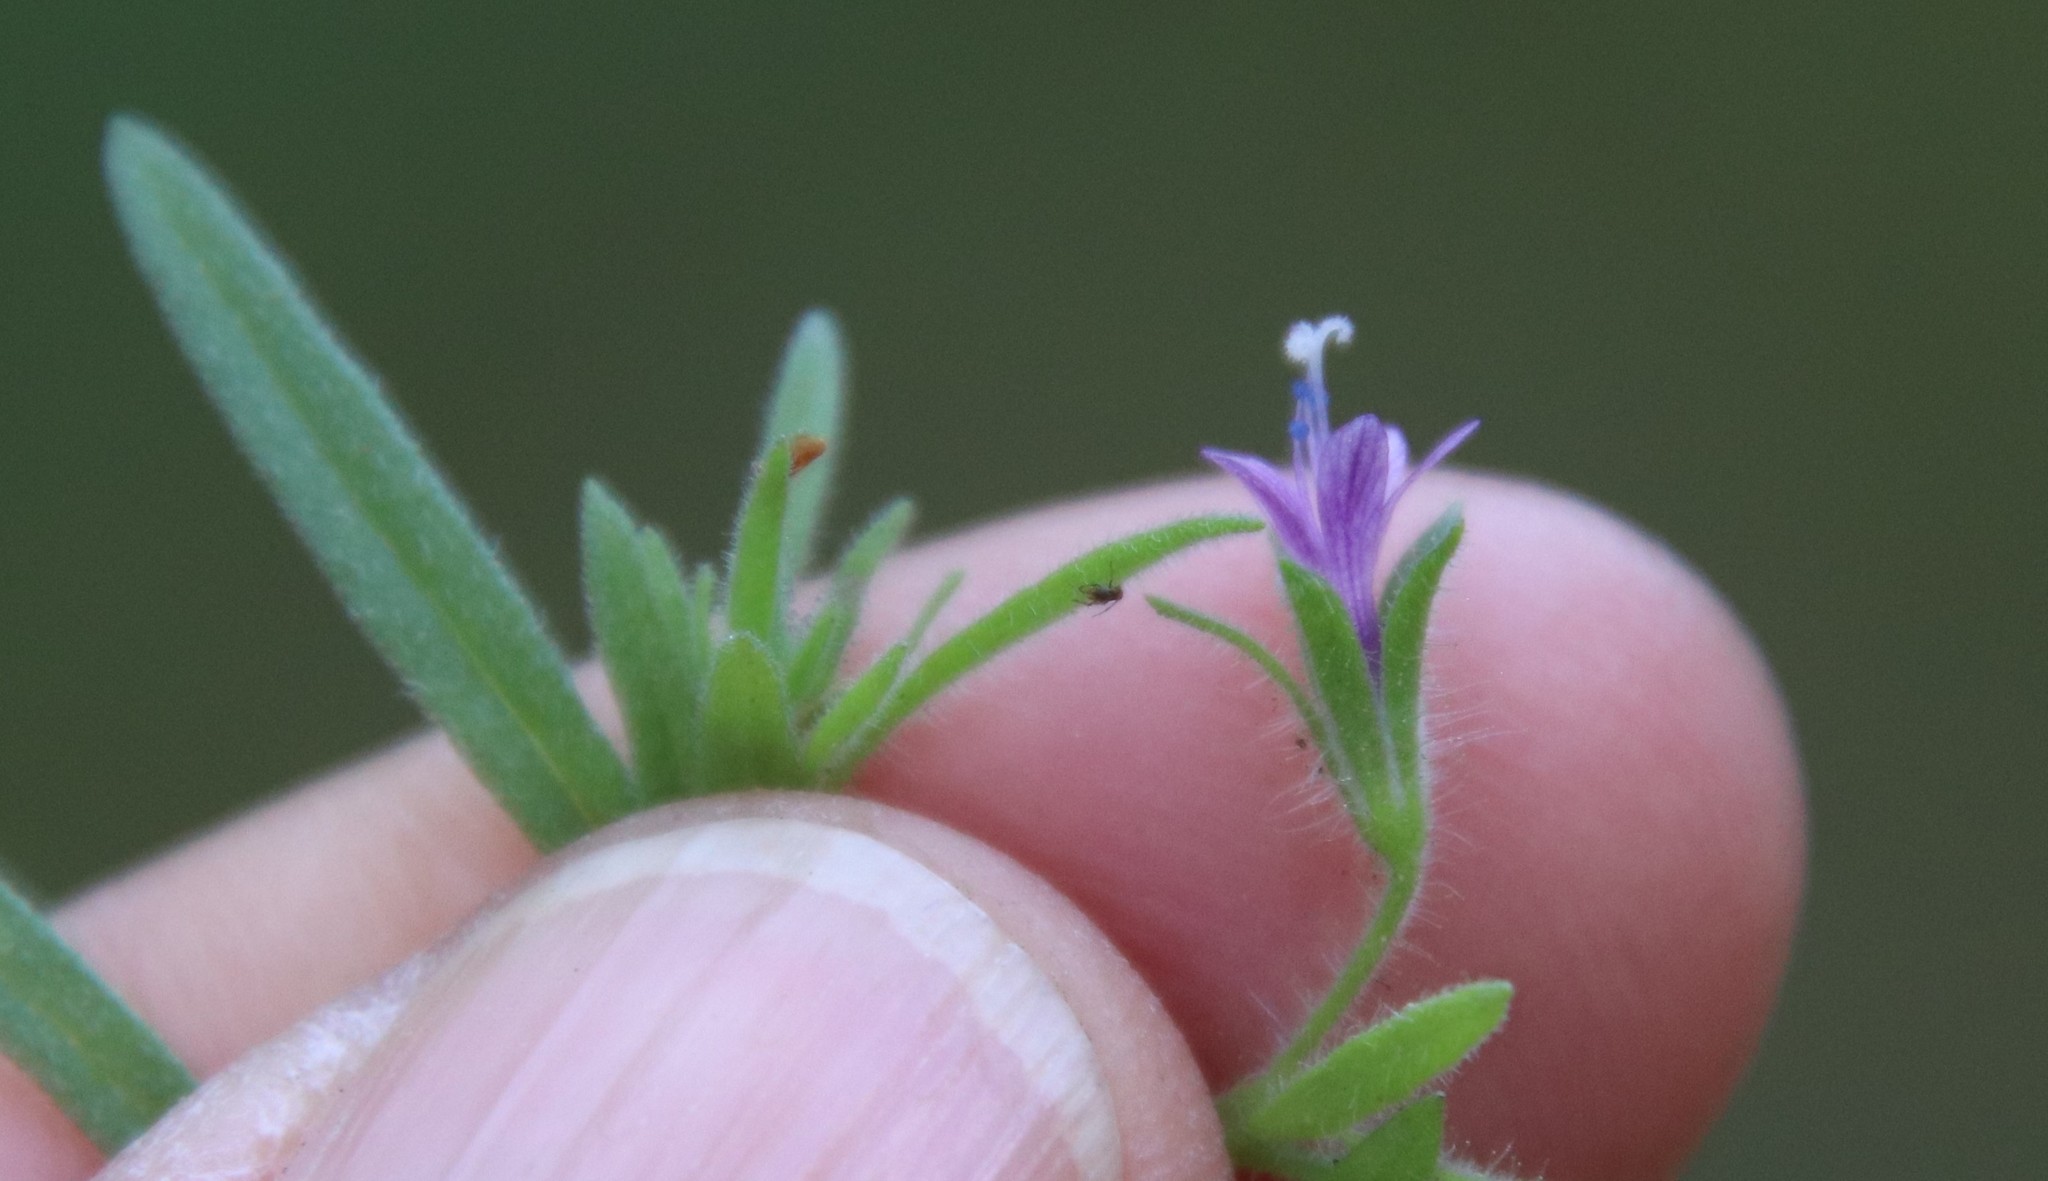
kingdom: Plantae
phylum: Tracheophyta
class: Magnoliopsida
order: Ericales
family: Polemoniaceae
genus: Allophyllum
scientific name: Allophyllum glutinosum
